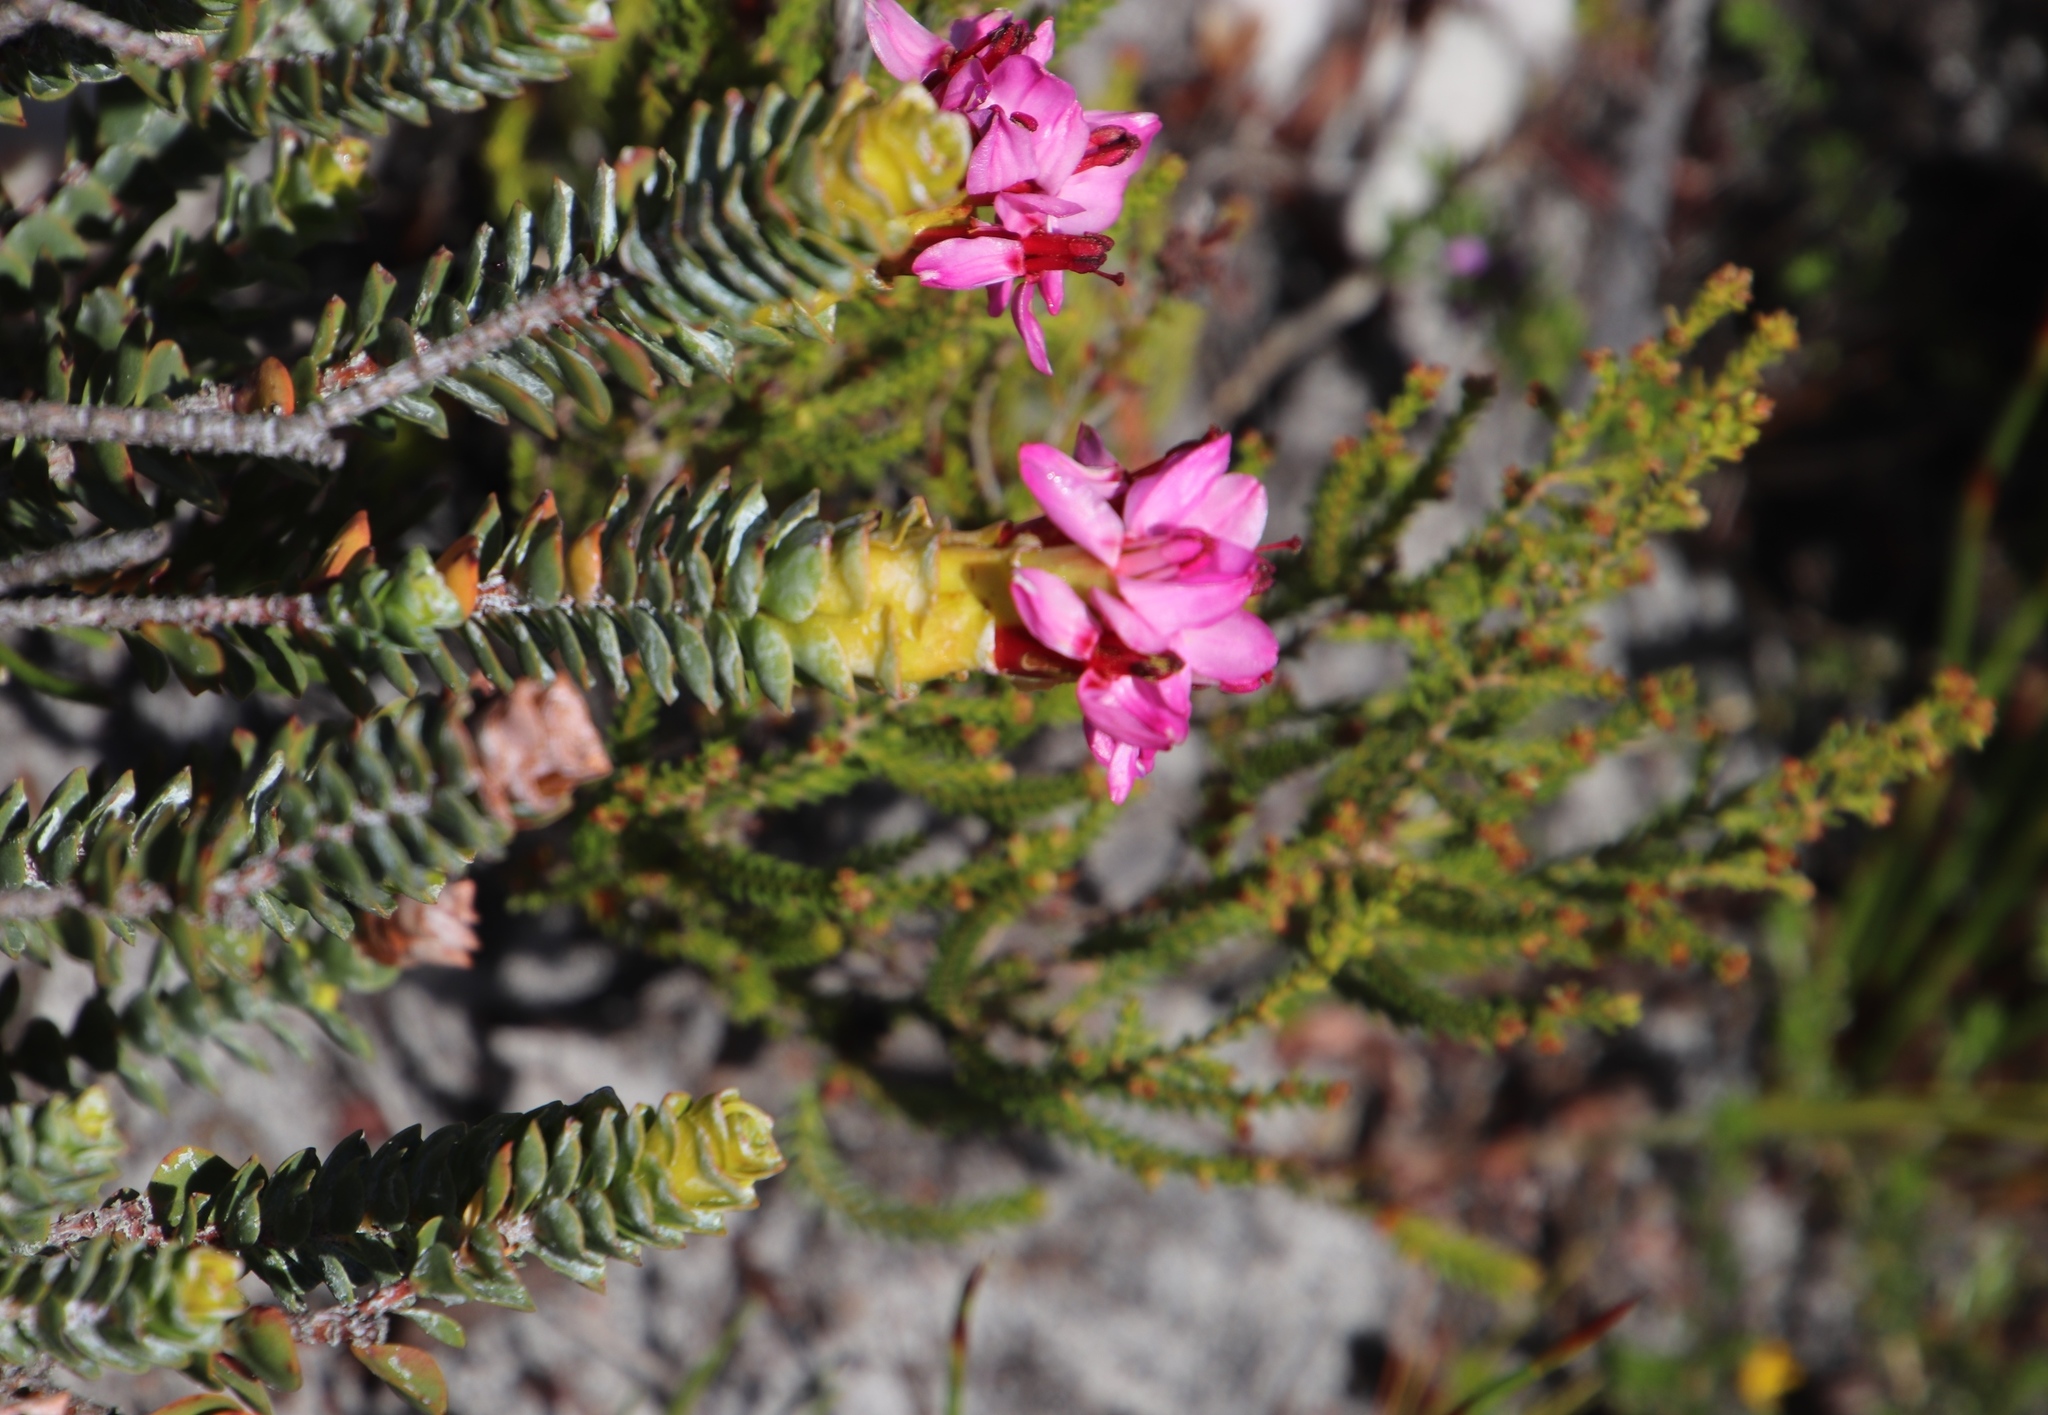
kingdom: Plantae
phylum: Tracheophyta
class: Magnoliopsida
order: Myrtales
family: Penaeaceae
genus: Saltera
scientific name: Saltera sarcocolla
